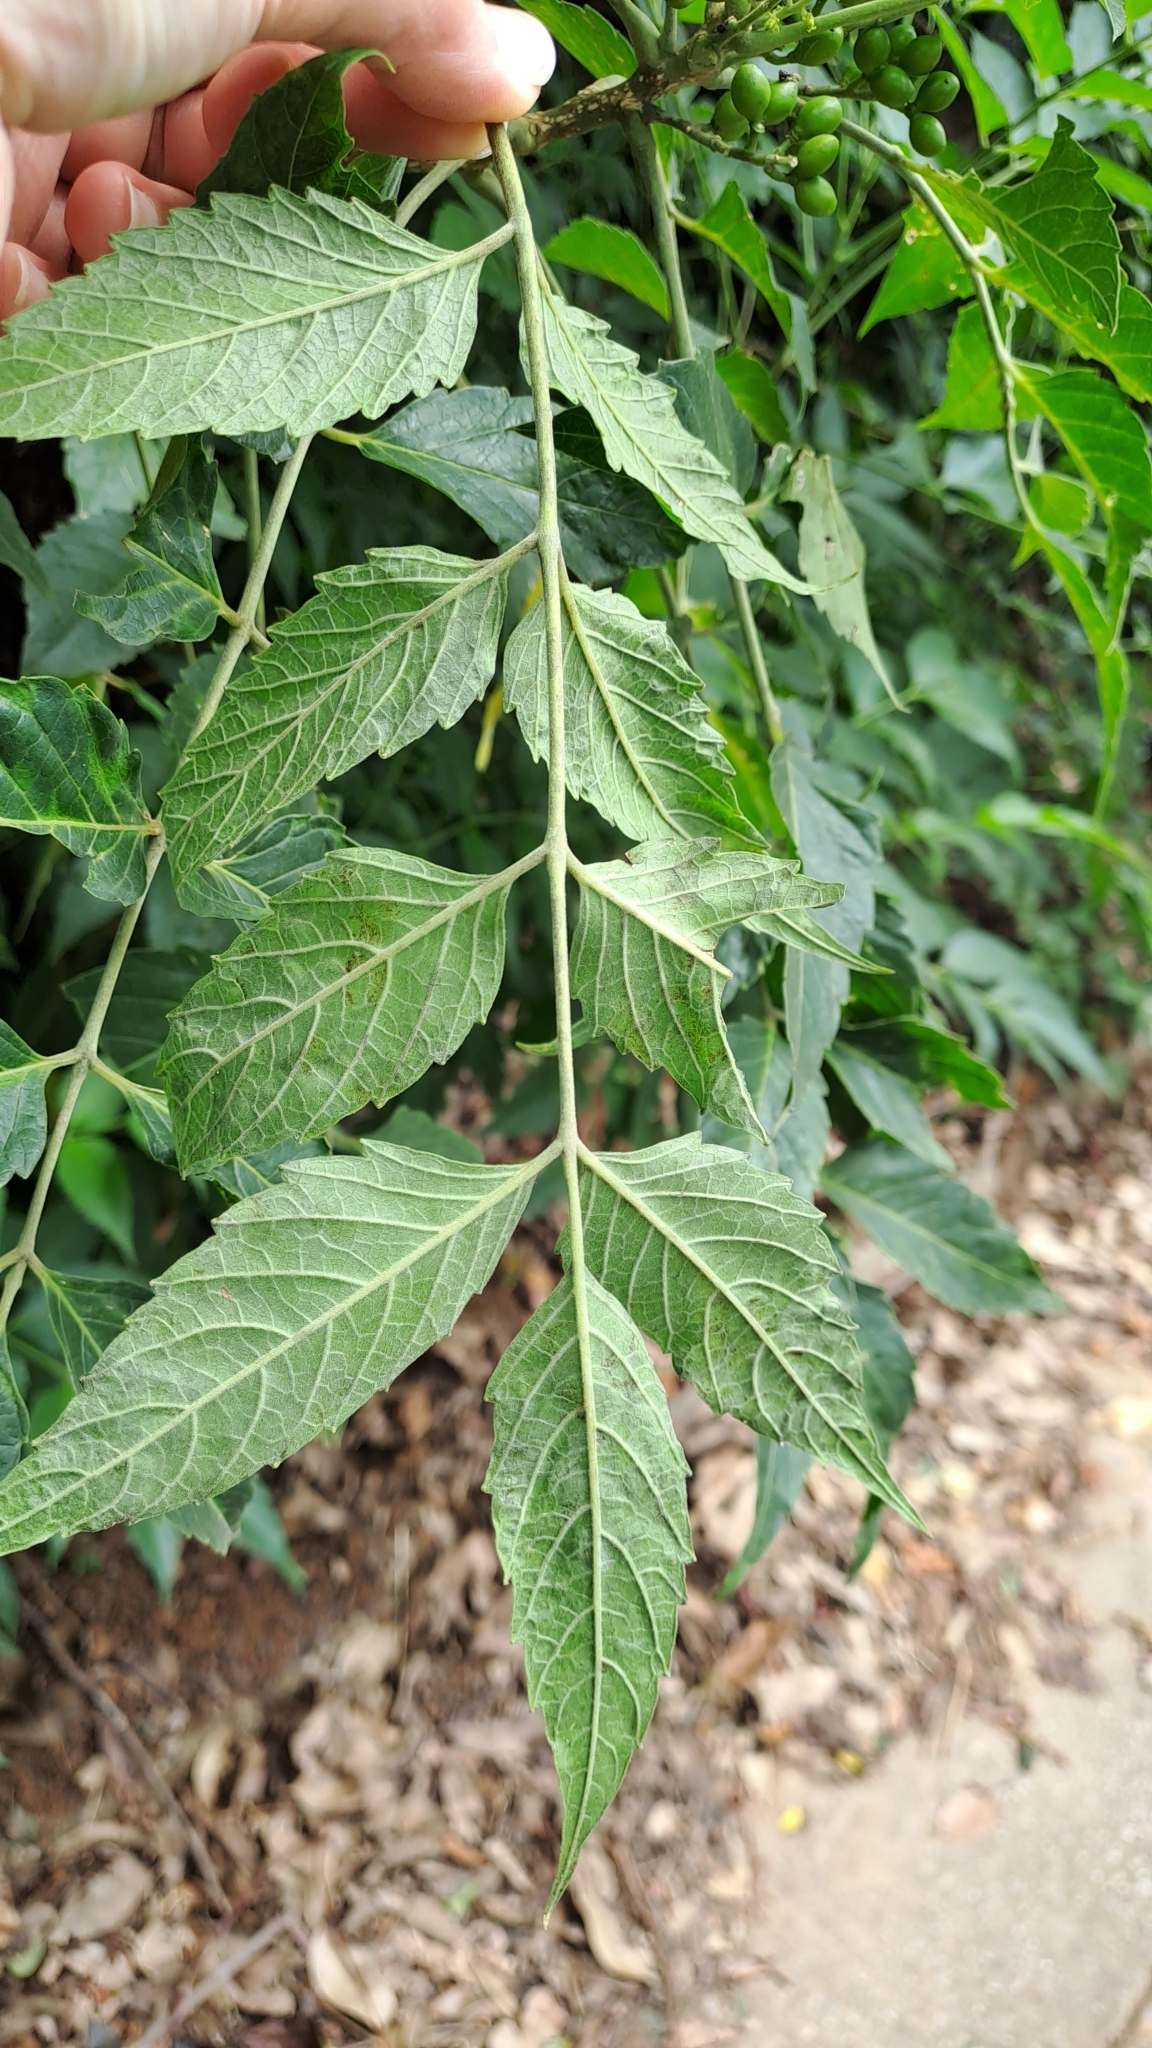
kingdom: Plantae
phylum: Tracheophyta
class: Magnoliopsida
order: Sapindales
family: Simaroubaceae
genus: Brucea
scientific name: Brucea javanica
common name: Macassar kernels
